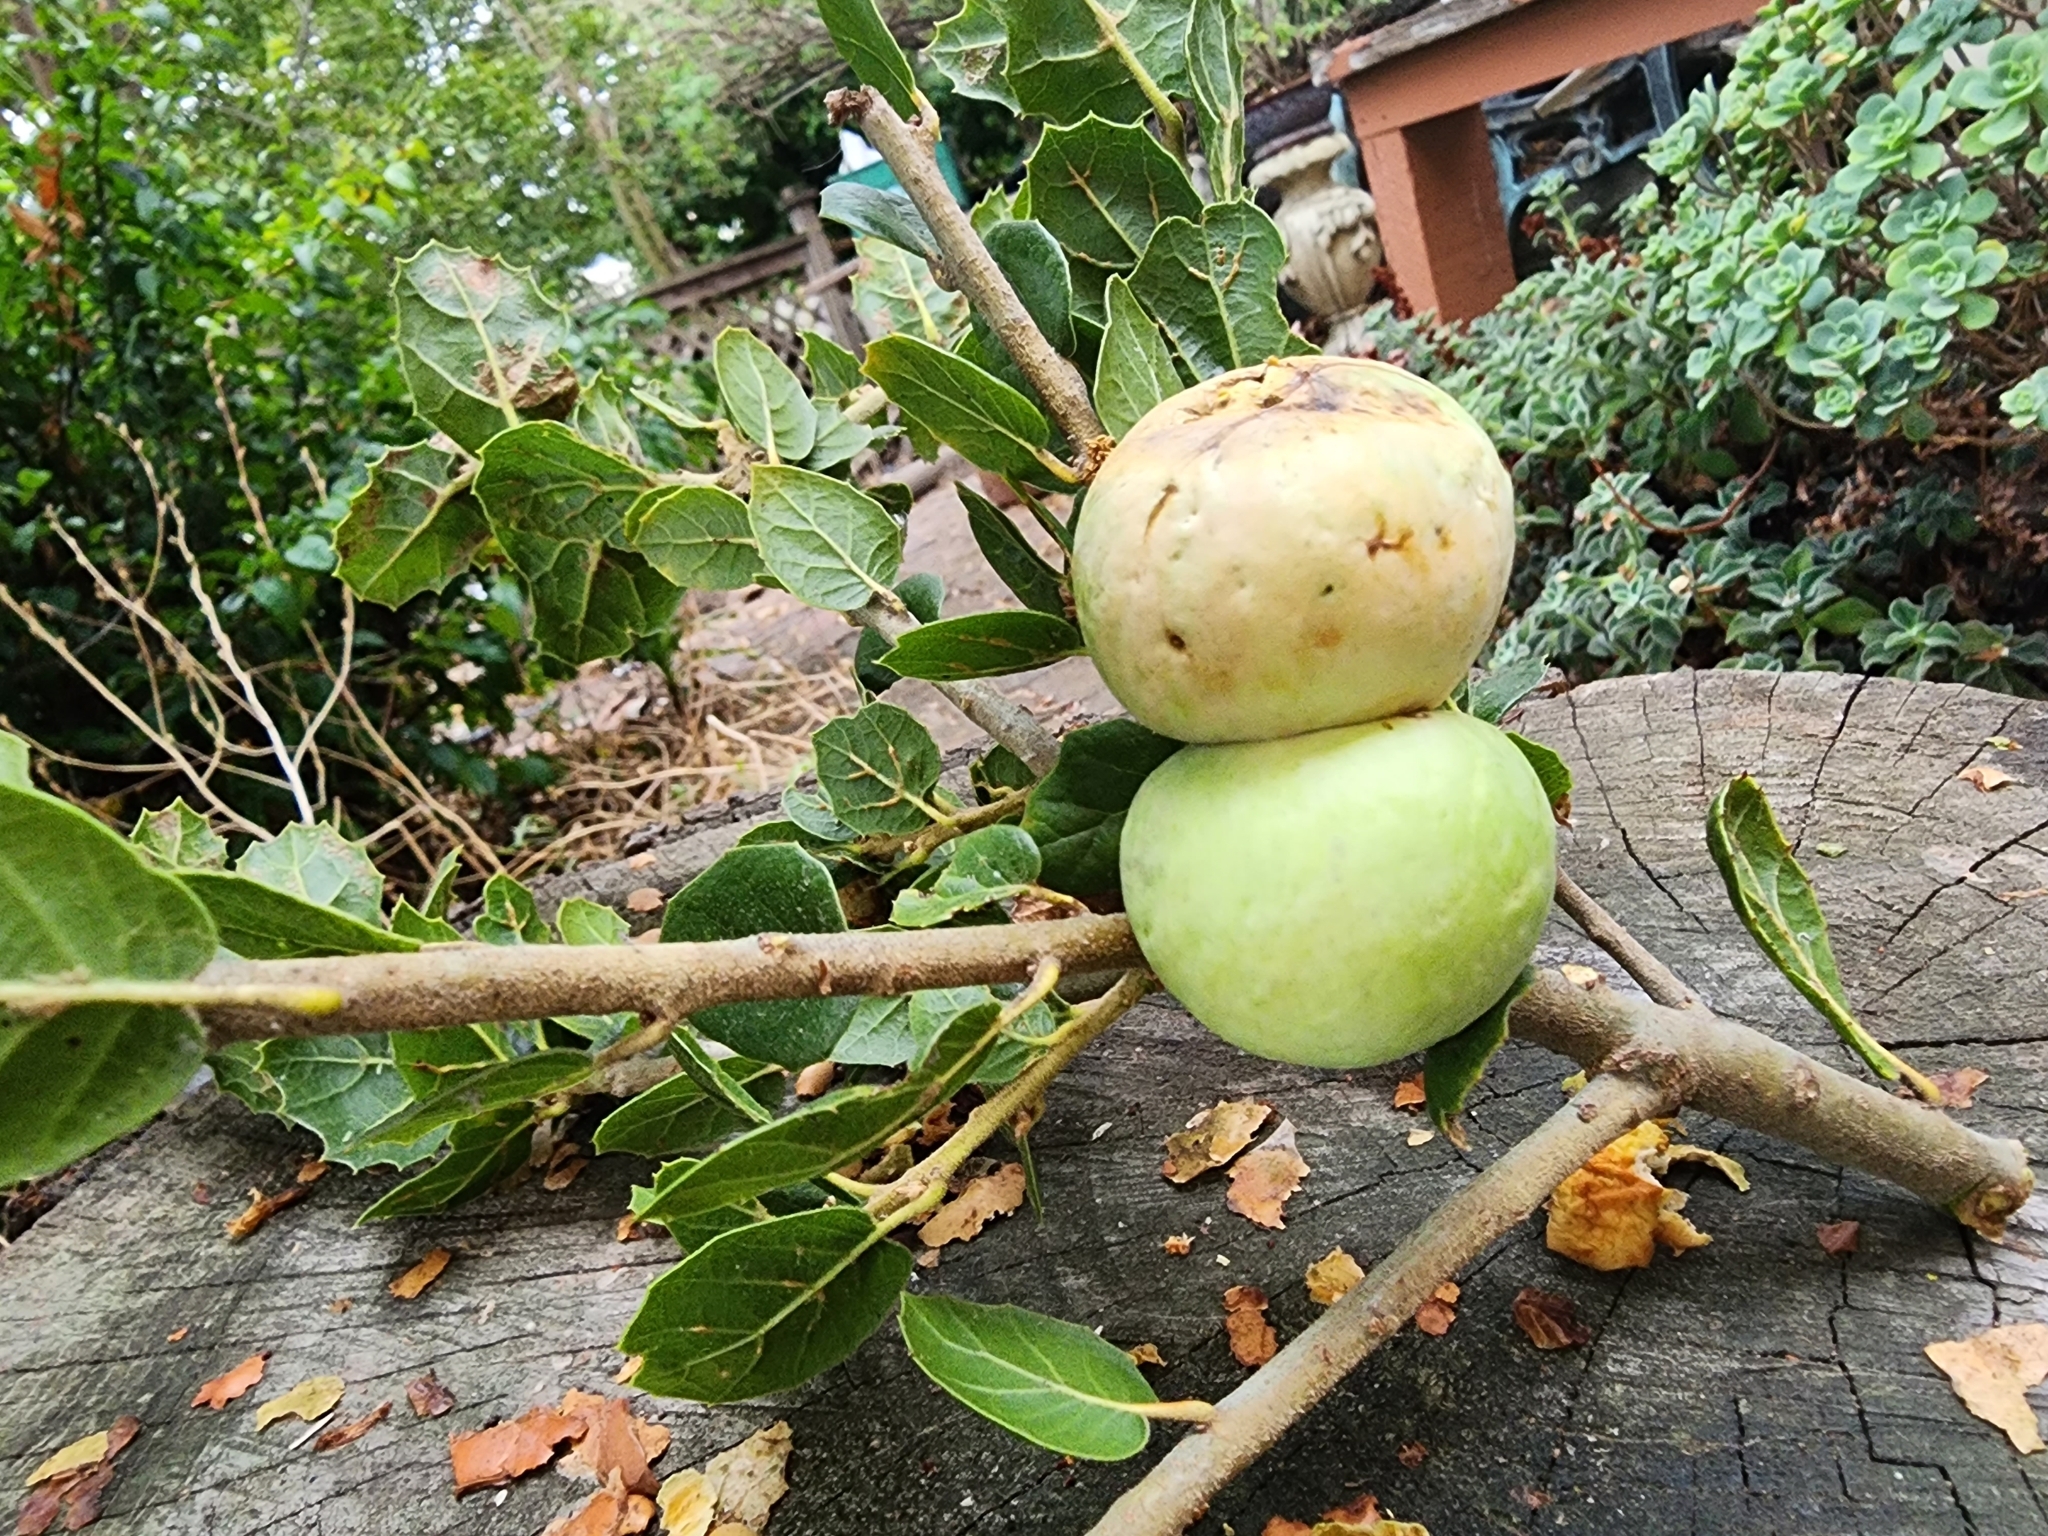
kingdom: Animalia
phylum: Arthropoda
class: Insecta
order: Hymenoptera
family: Cynipidae
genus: Amphibolips
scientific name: Amphibolips quercuspomiformis
